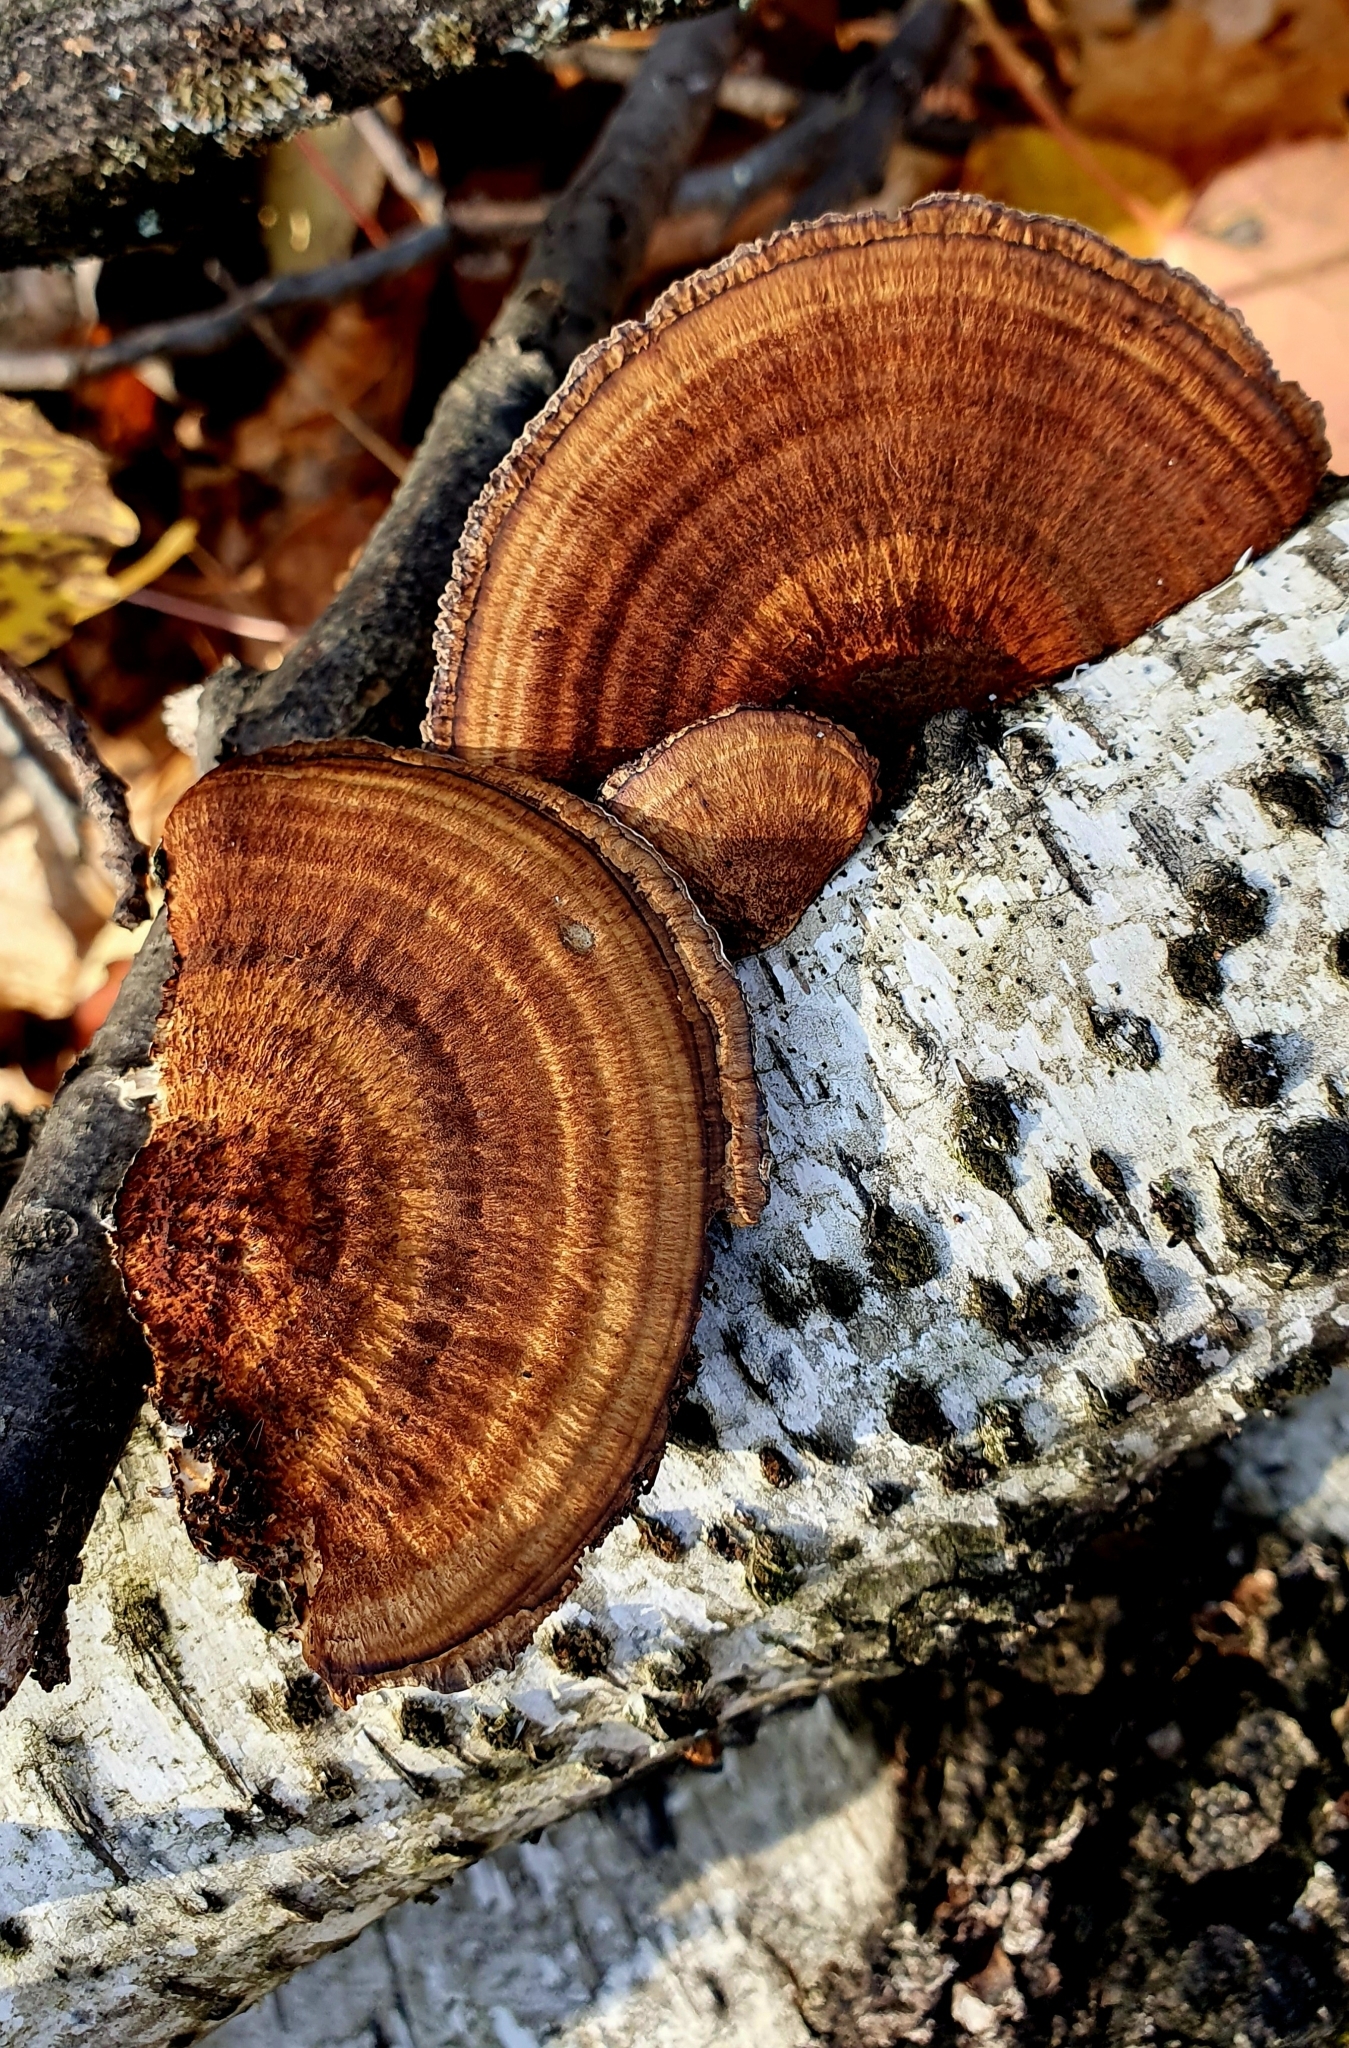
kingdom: Fungi
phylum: Basidiomycota
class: Agaricomycetes
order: Polyporales
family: Polyporaceae
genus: Daedaleopsis
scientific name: Daedaleopsis tricolor
